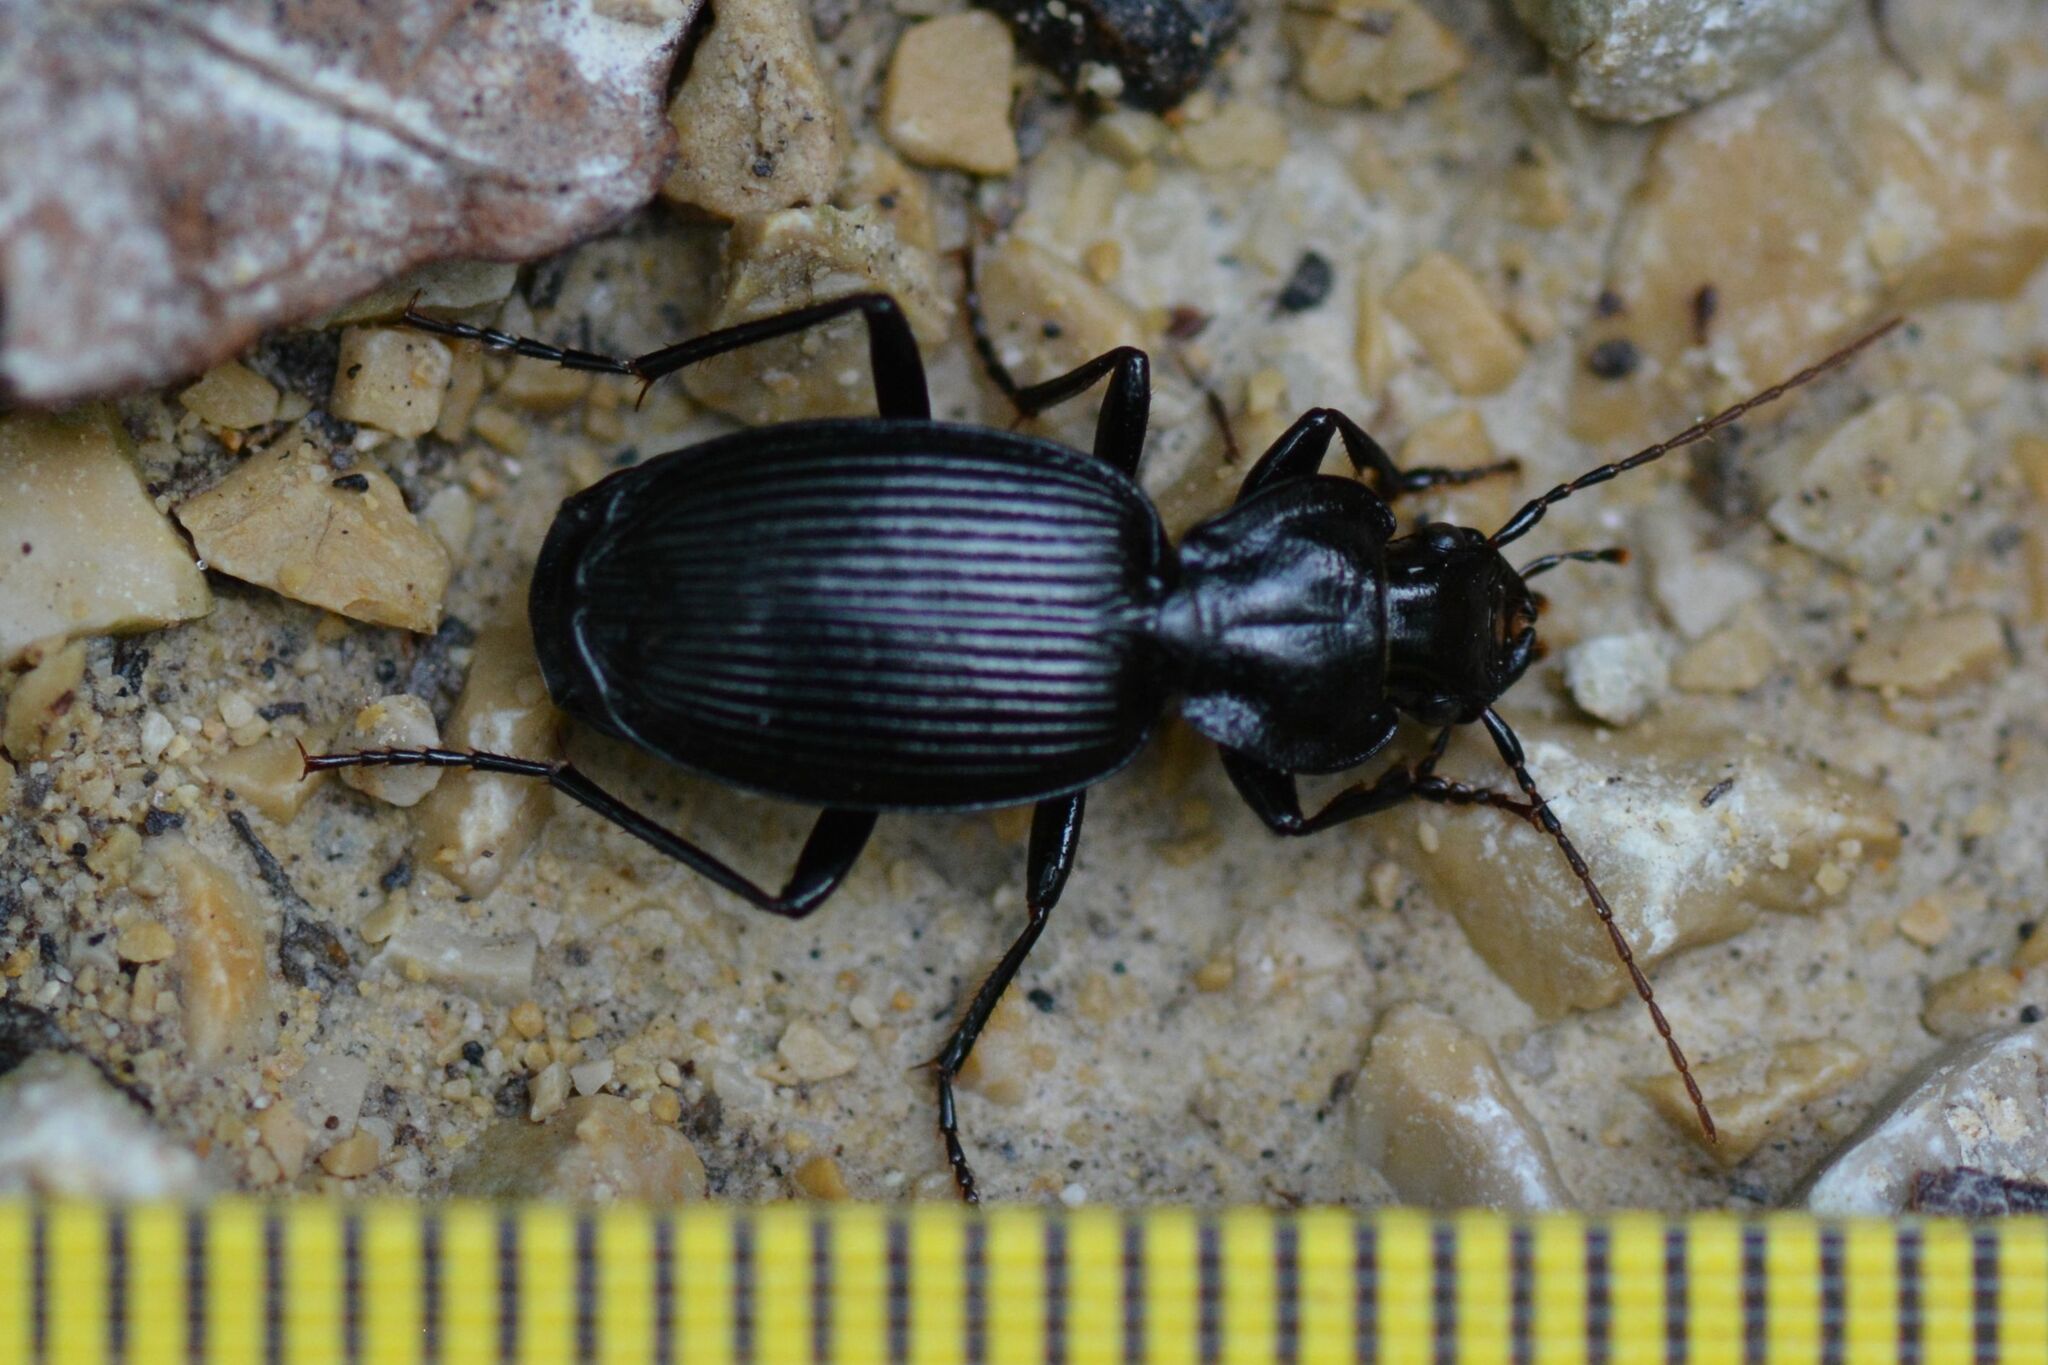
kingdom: Animalia
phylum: Arthropoda
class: Insecta
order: Coleoptera
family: Carabidae
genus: Licinus
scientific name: Licinus hoffmannseggii
